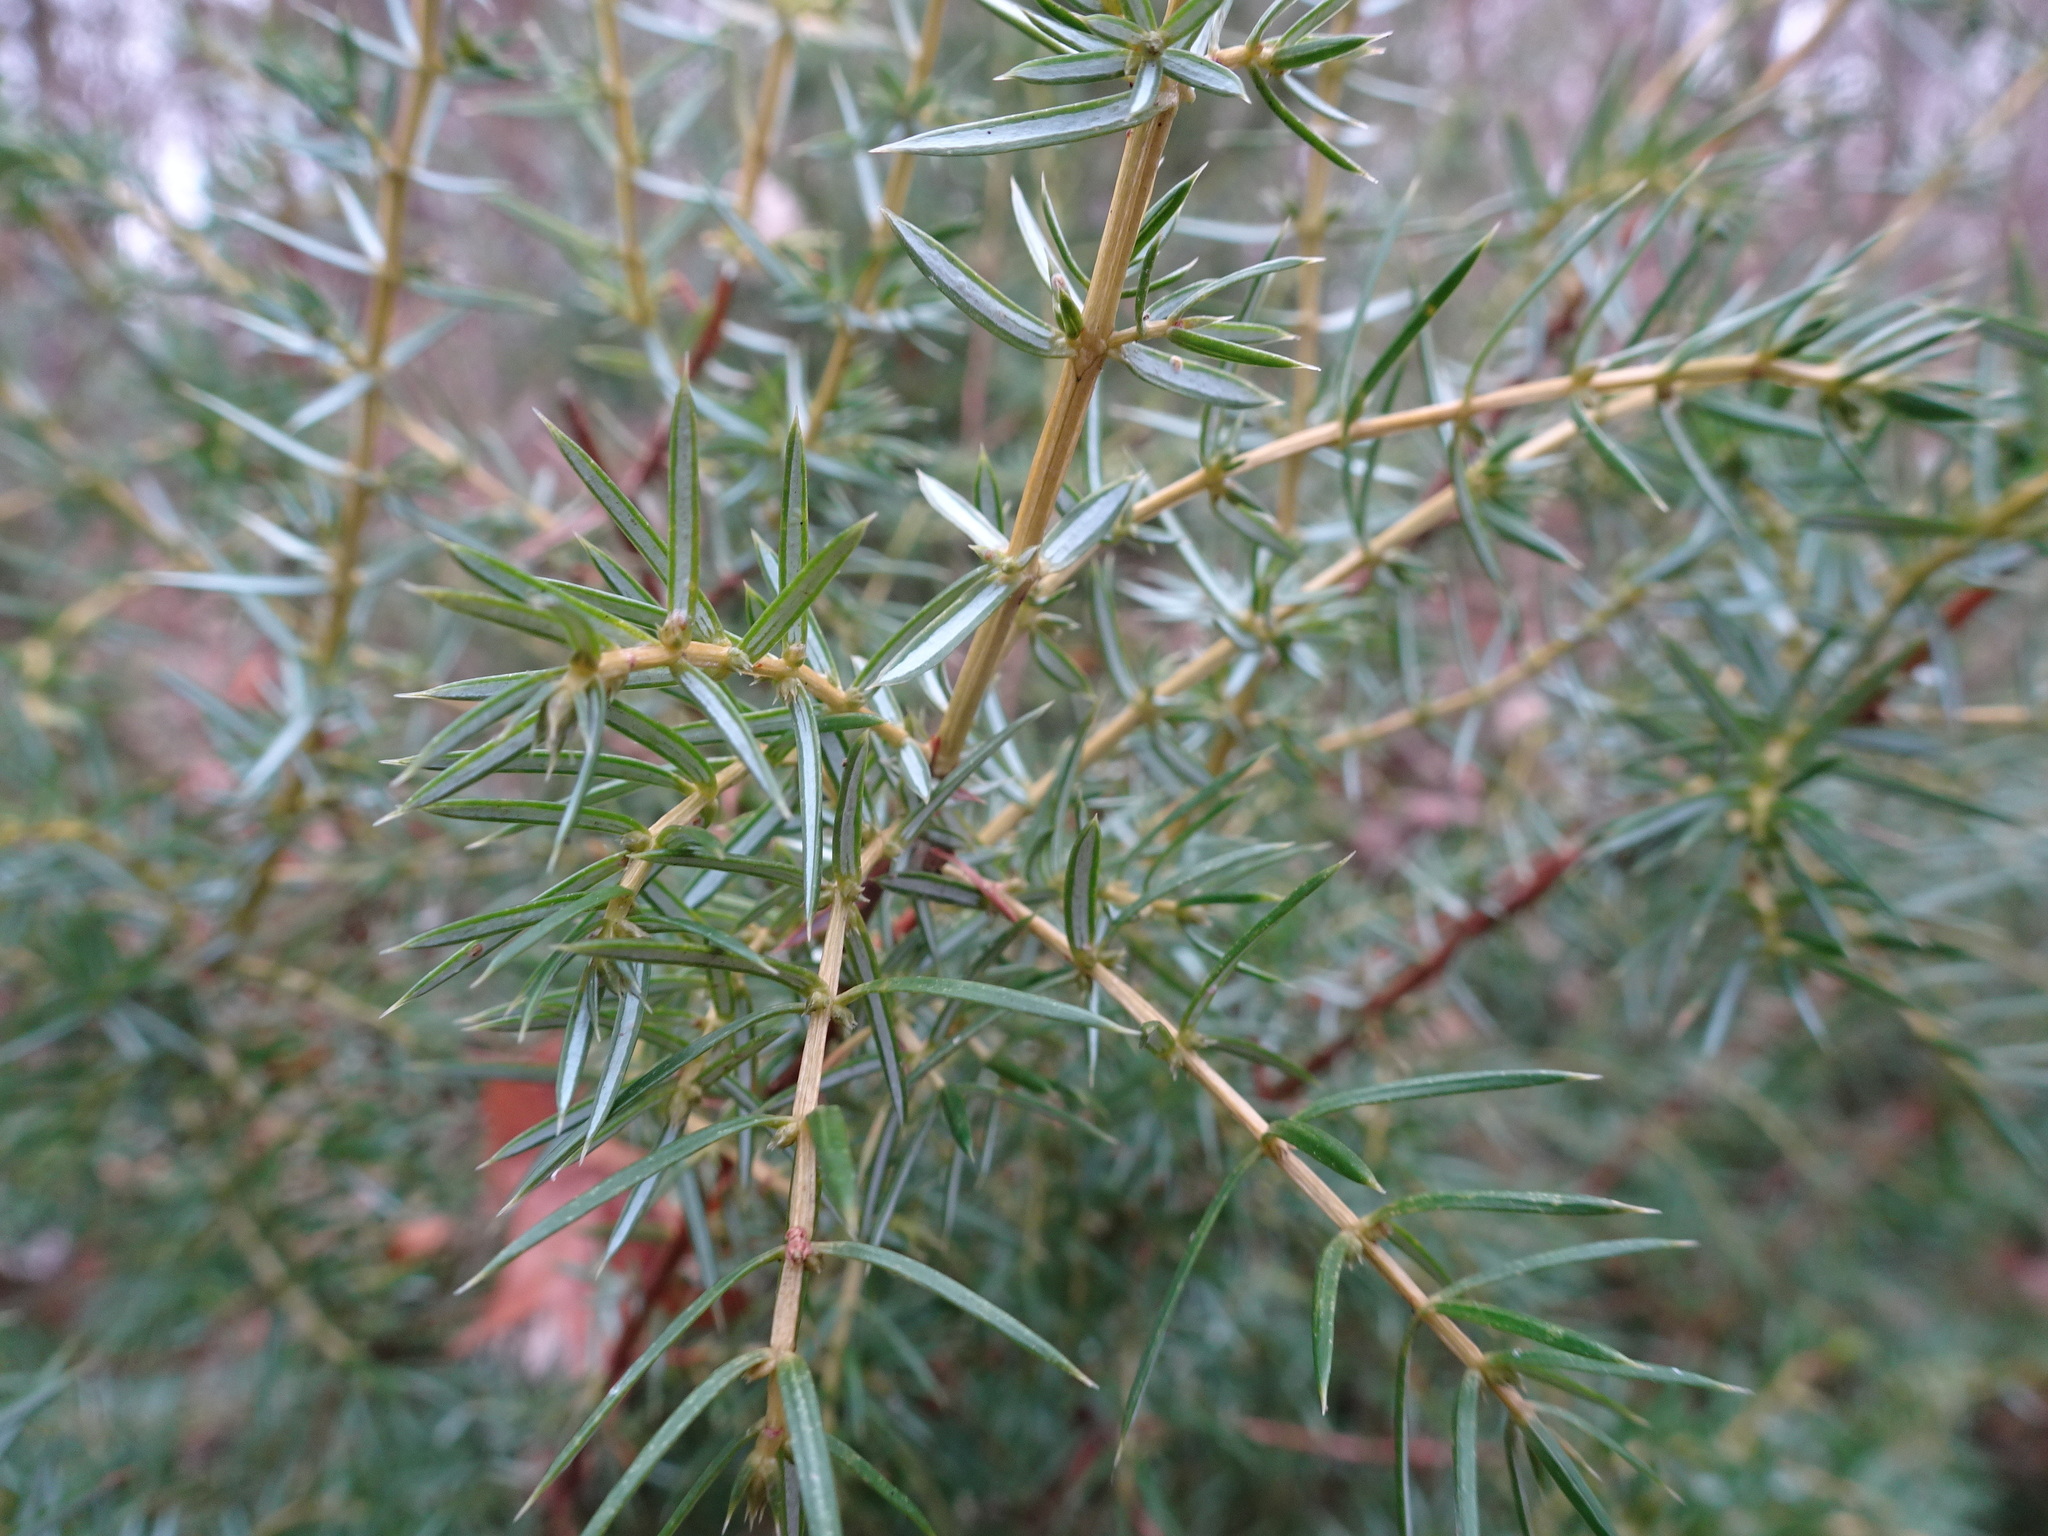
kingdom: Plantae
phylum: Tracheophyta
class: Pinopsida
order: Pinales
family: Cupressaceae
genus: Juniperus
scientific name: Juniperus communis
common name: Common juniper
